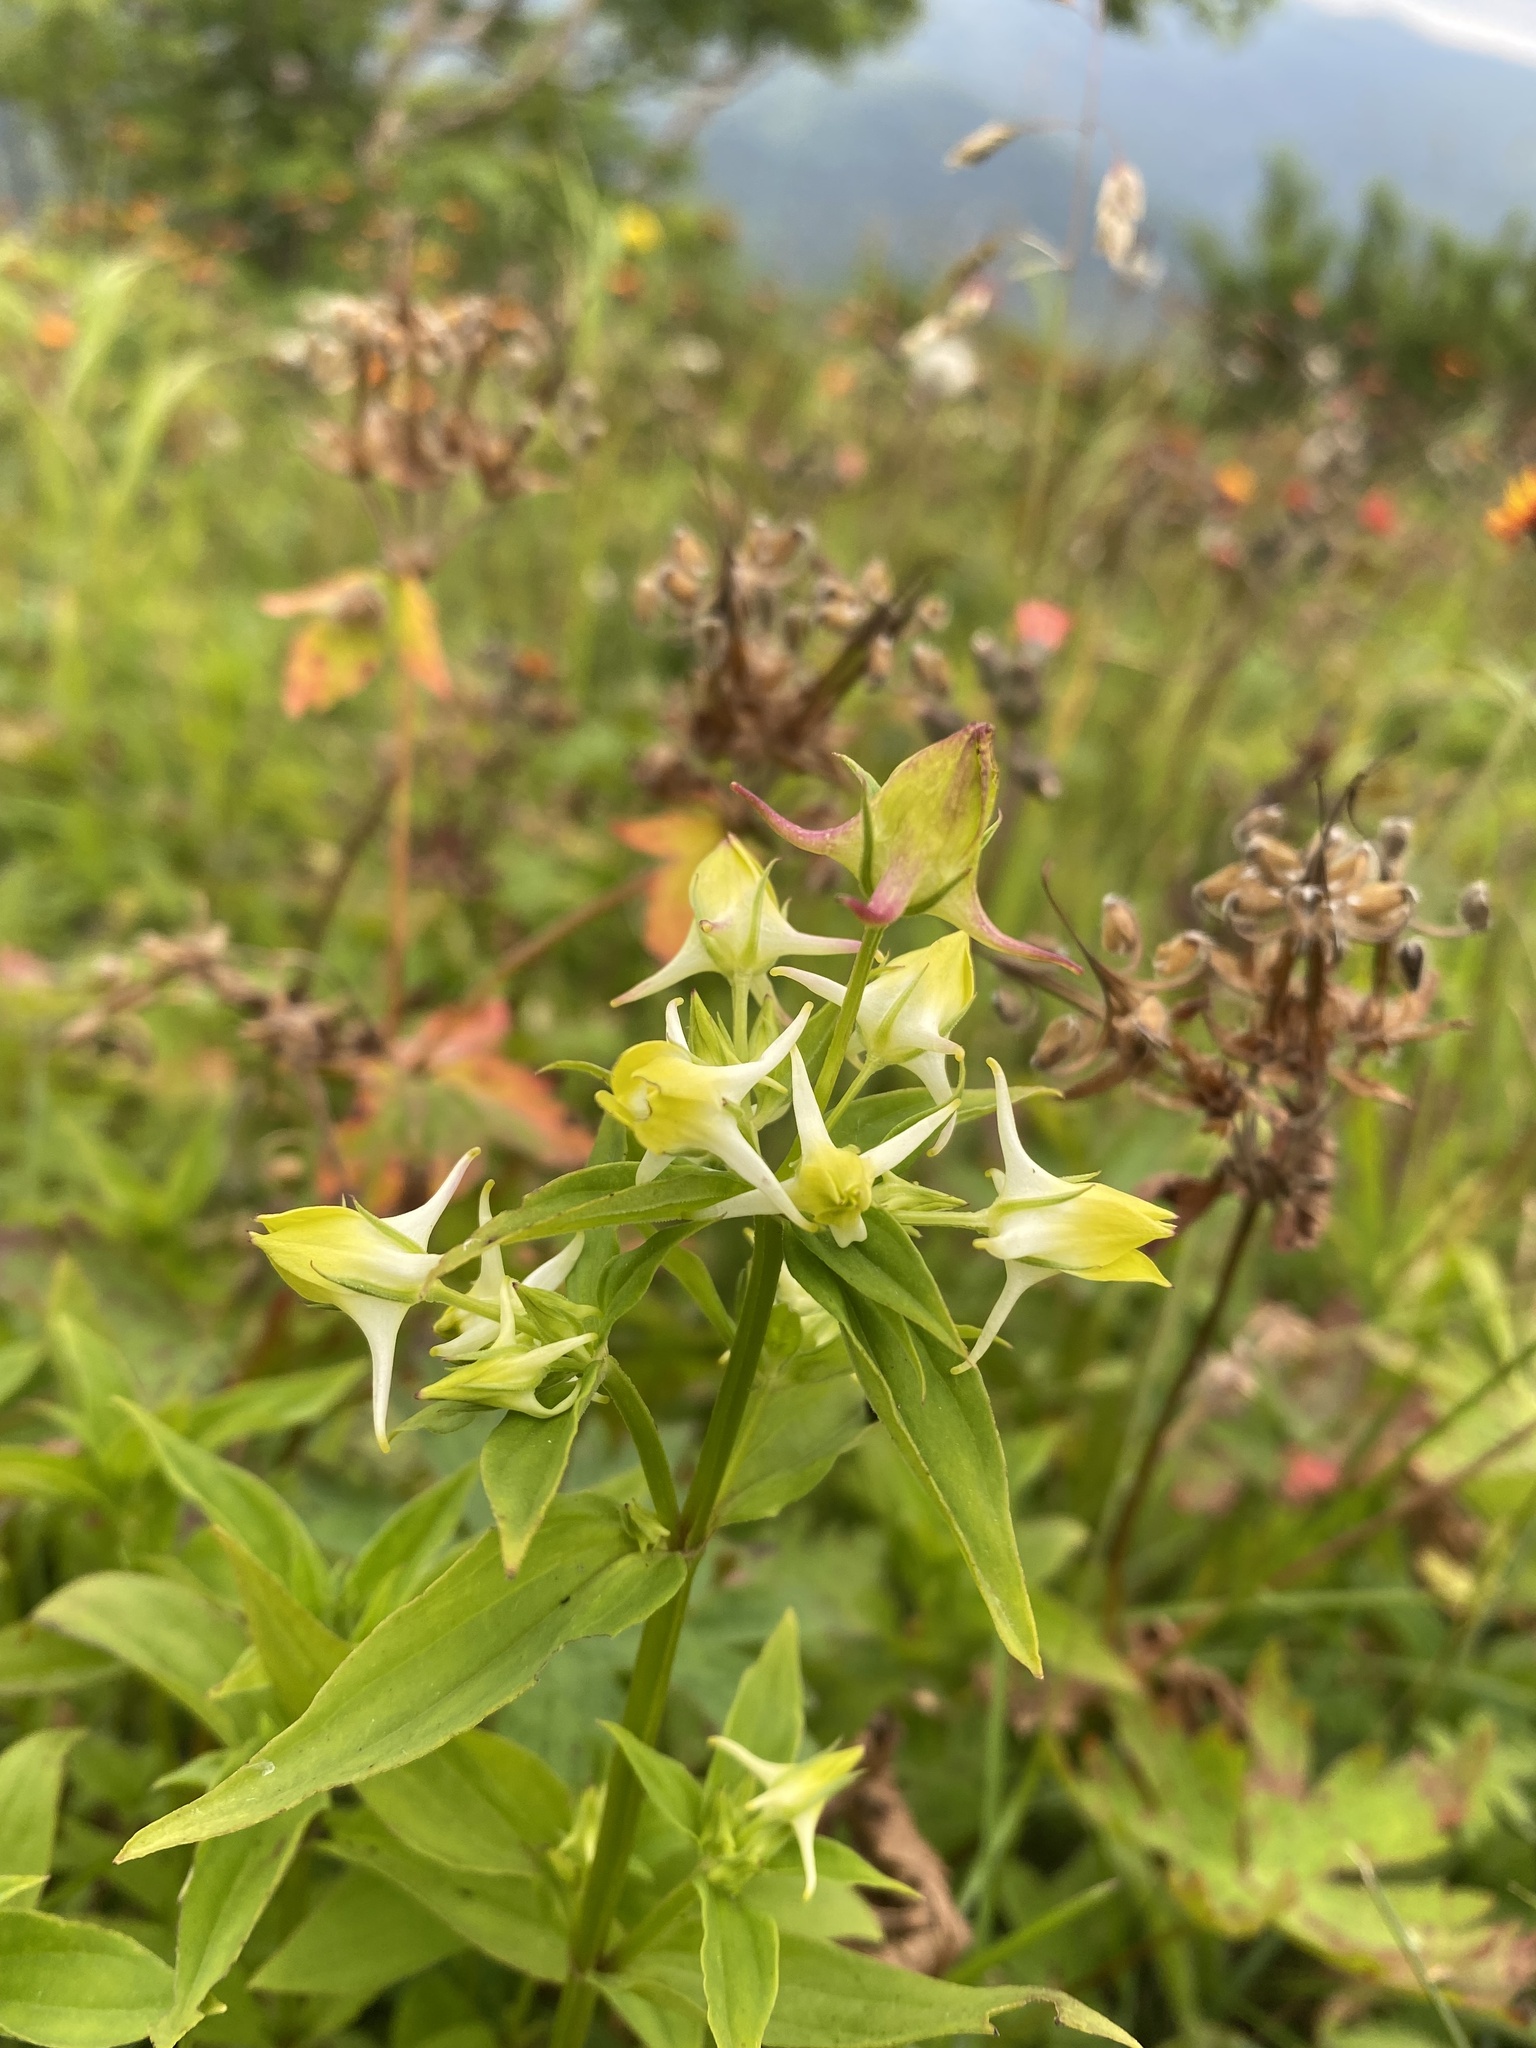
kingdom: Plantae
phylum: Tracheophyta
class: Magnoliopsida
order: Gentianales
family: Gentianaceae
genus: Halenia
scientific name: Halenia corniculata
